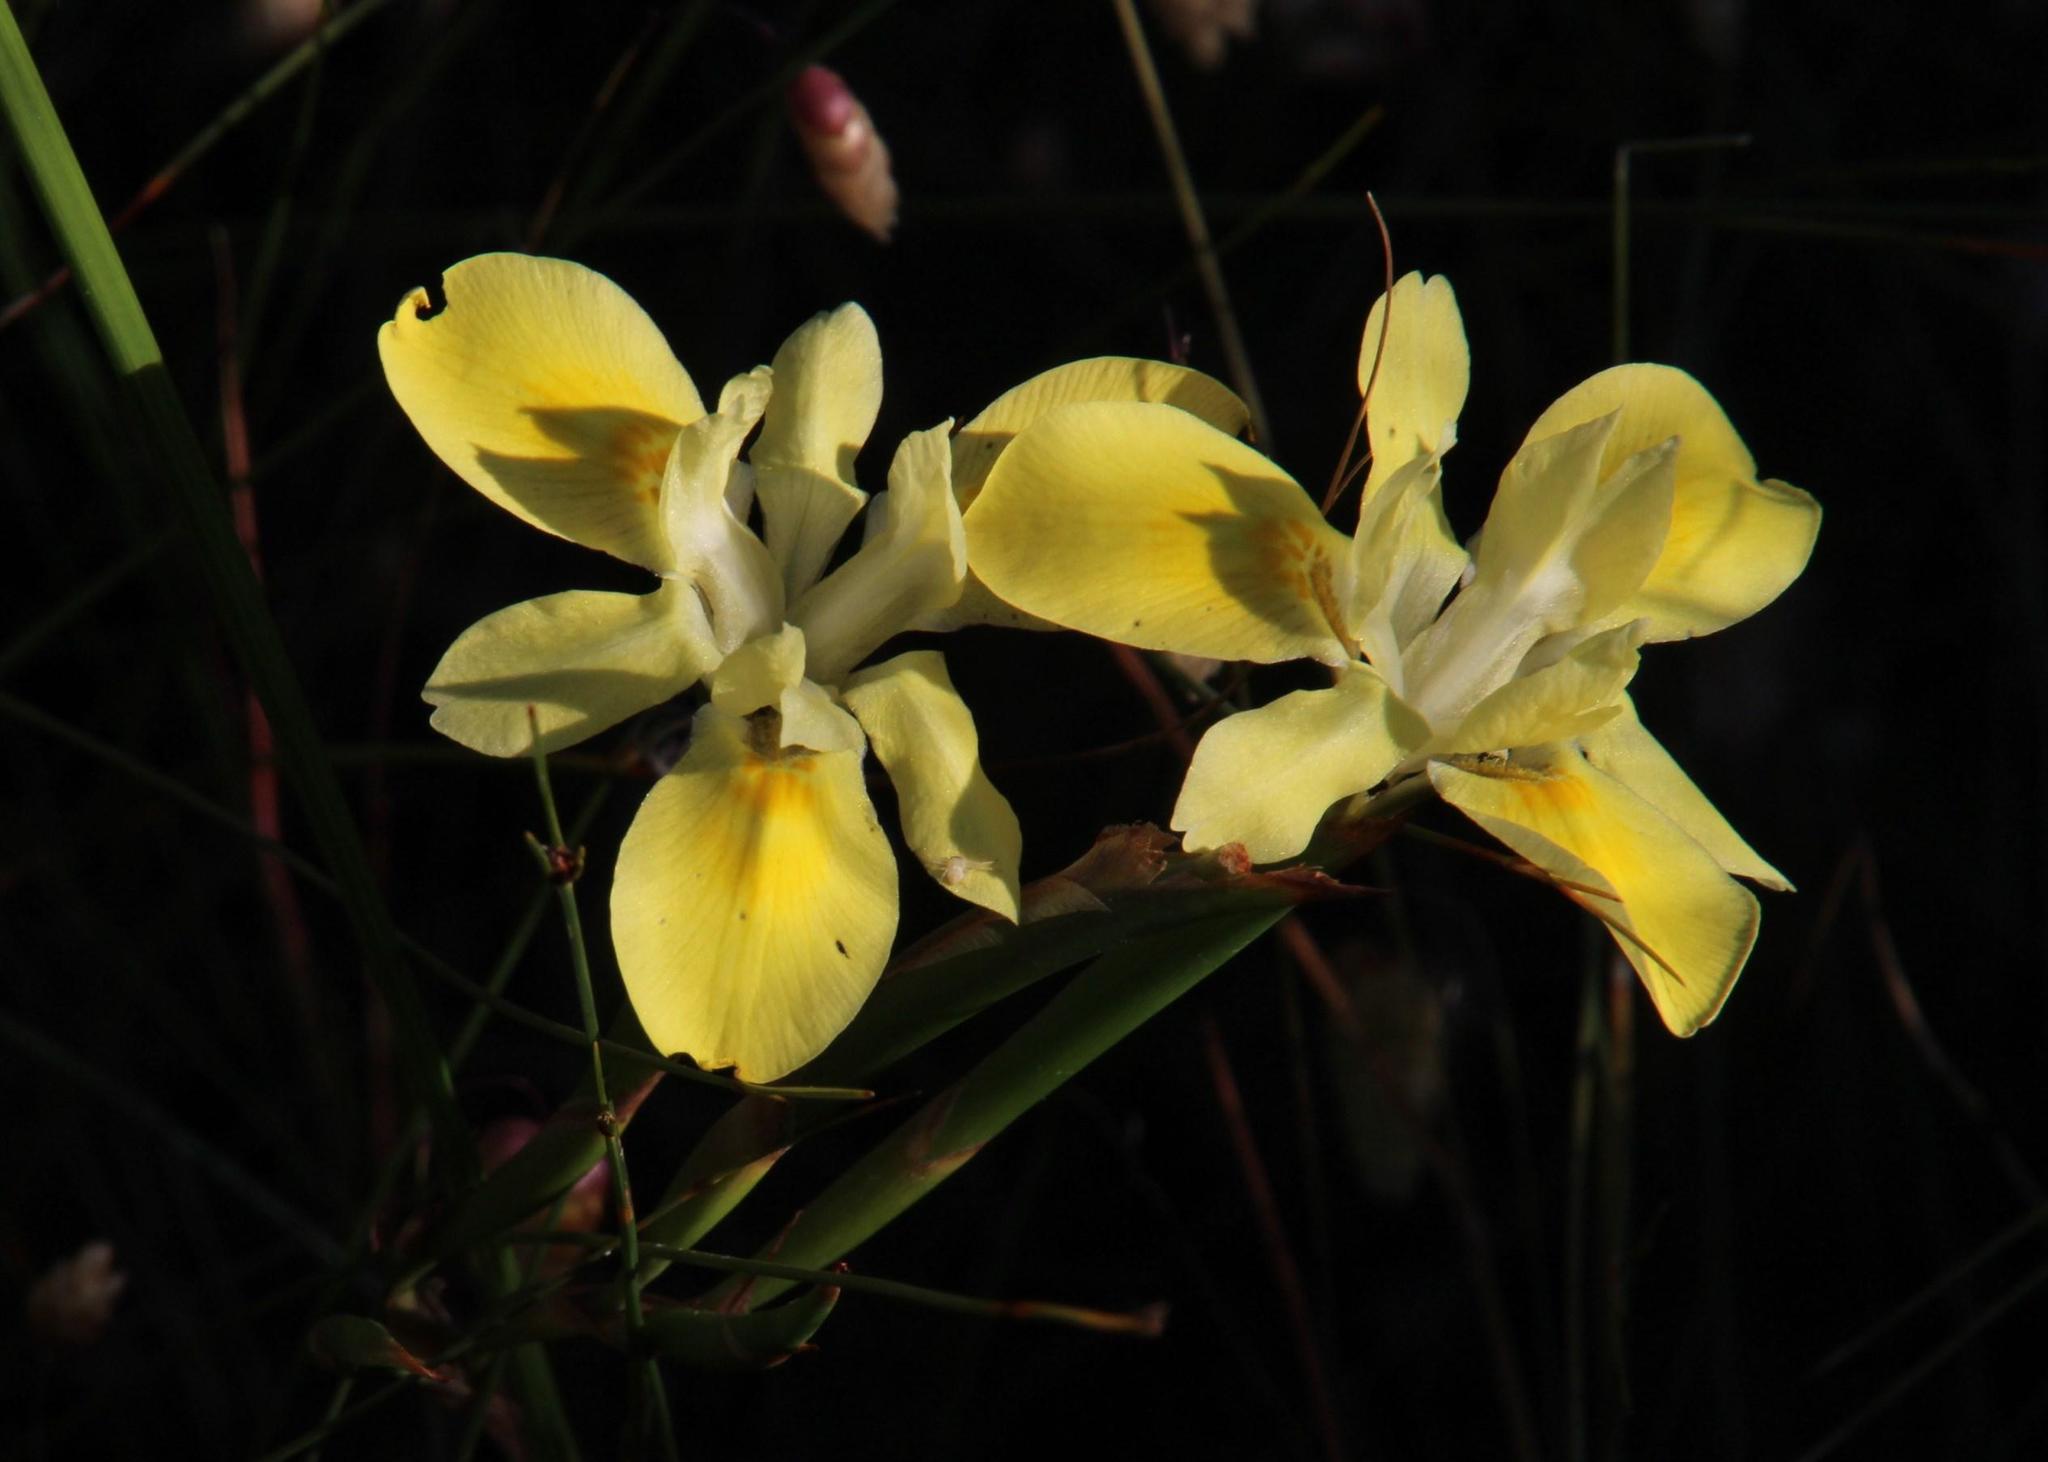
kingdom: Plantae
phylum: Tracheophyta
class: Liliopsida
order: Asparagales
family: Iridaceae
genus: Moraea
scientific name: Moraea fugax
